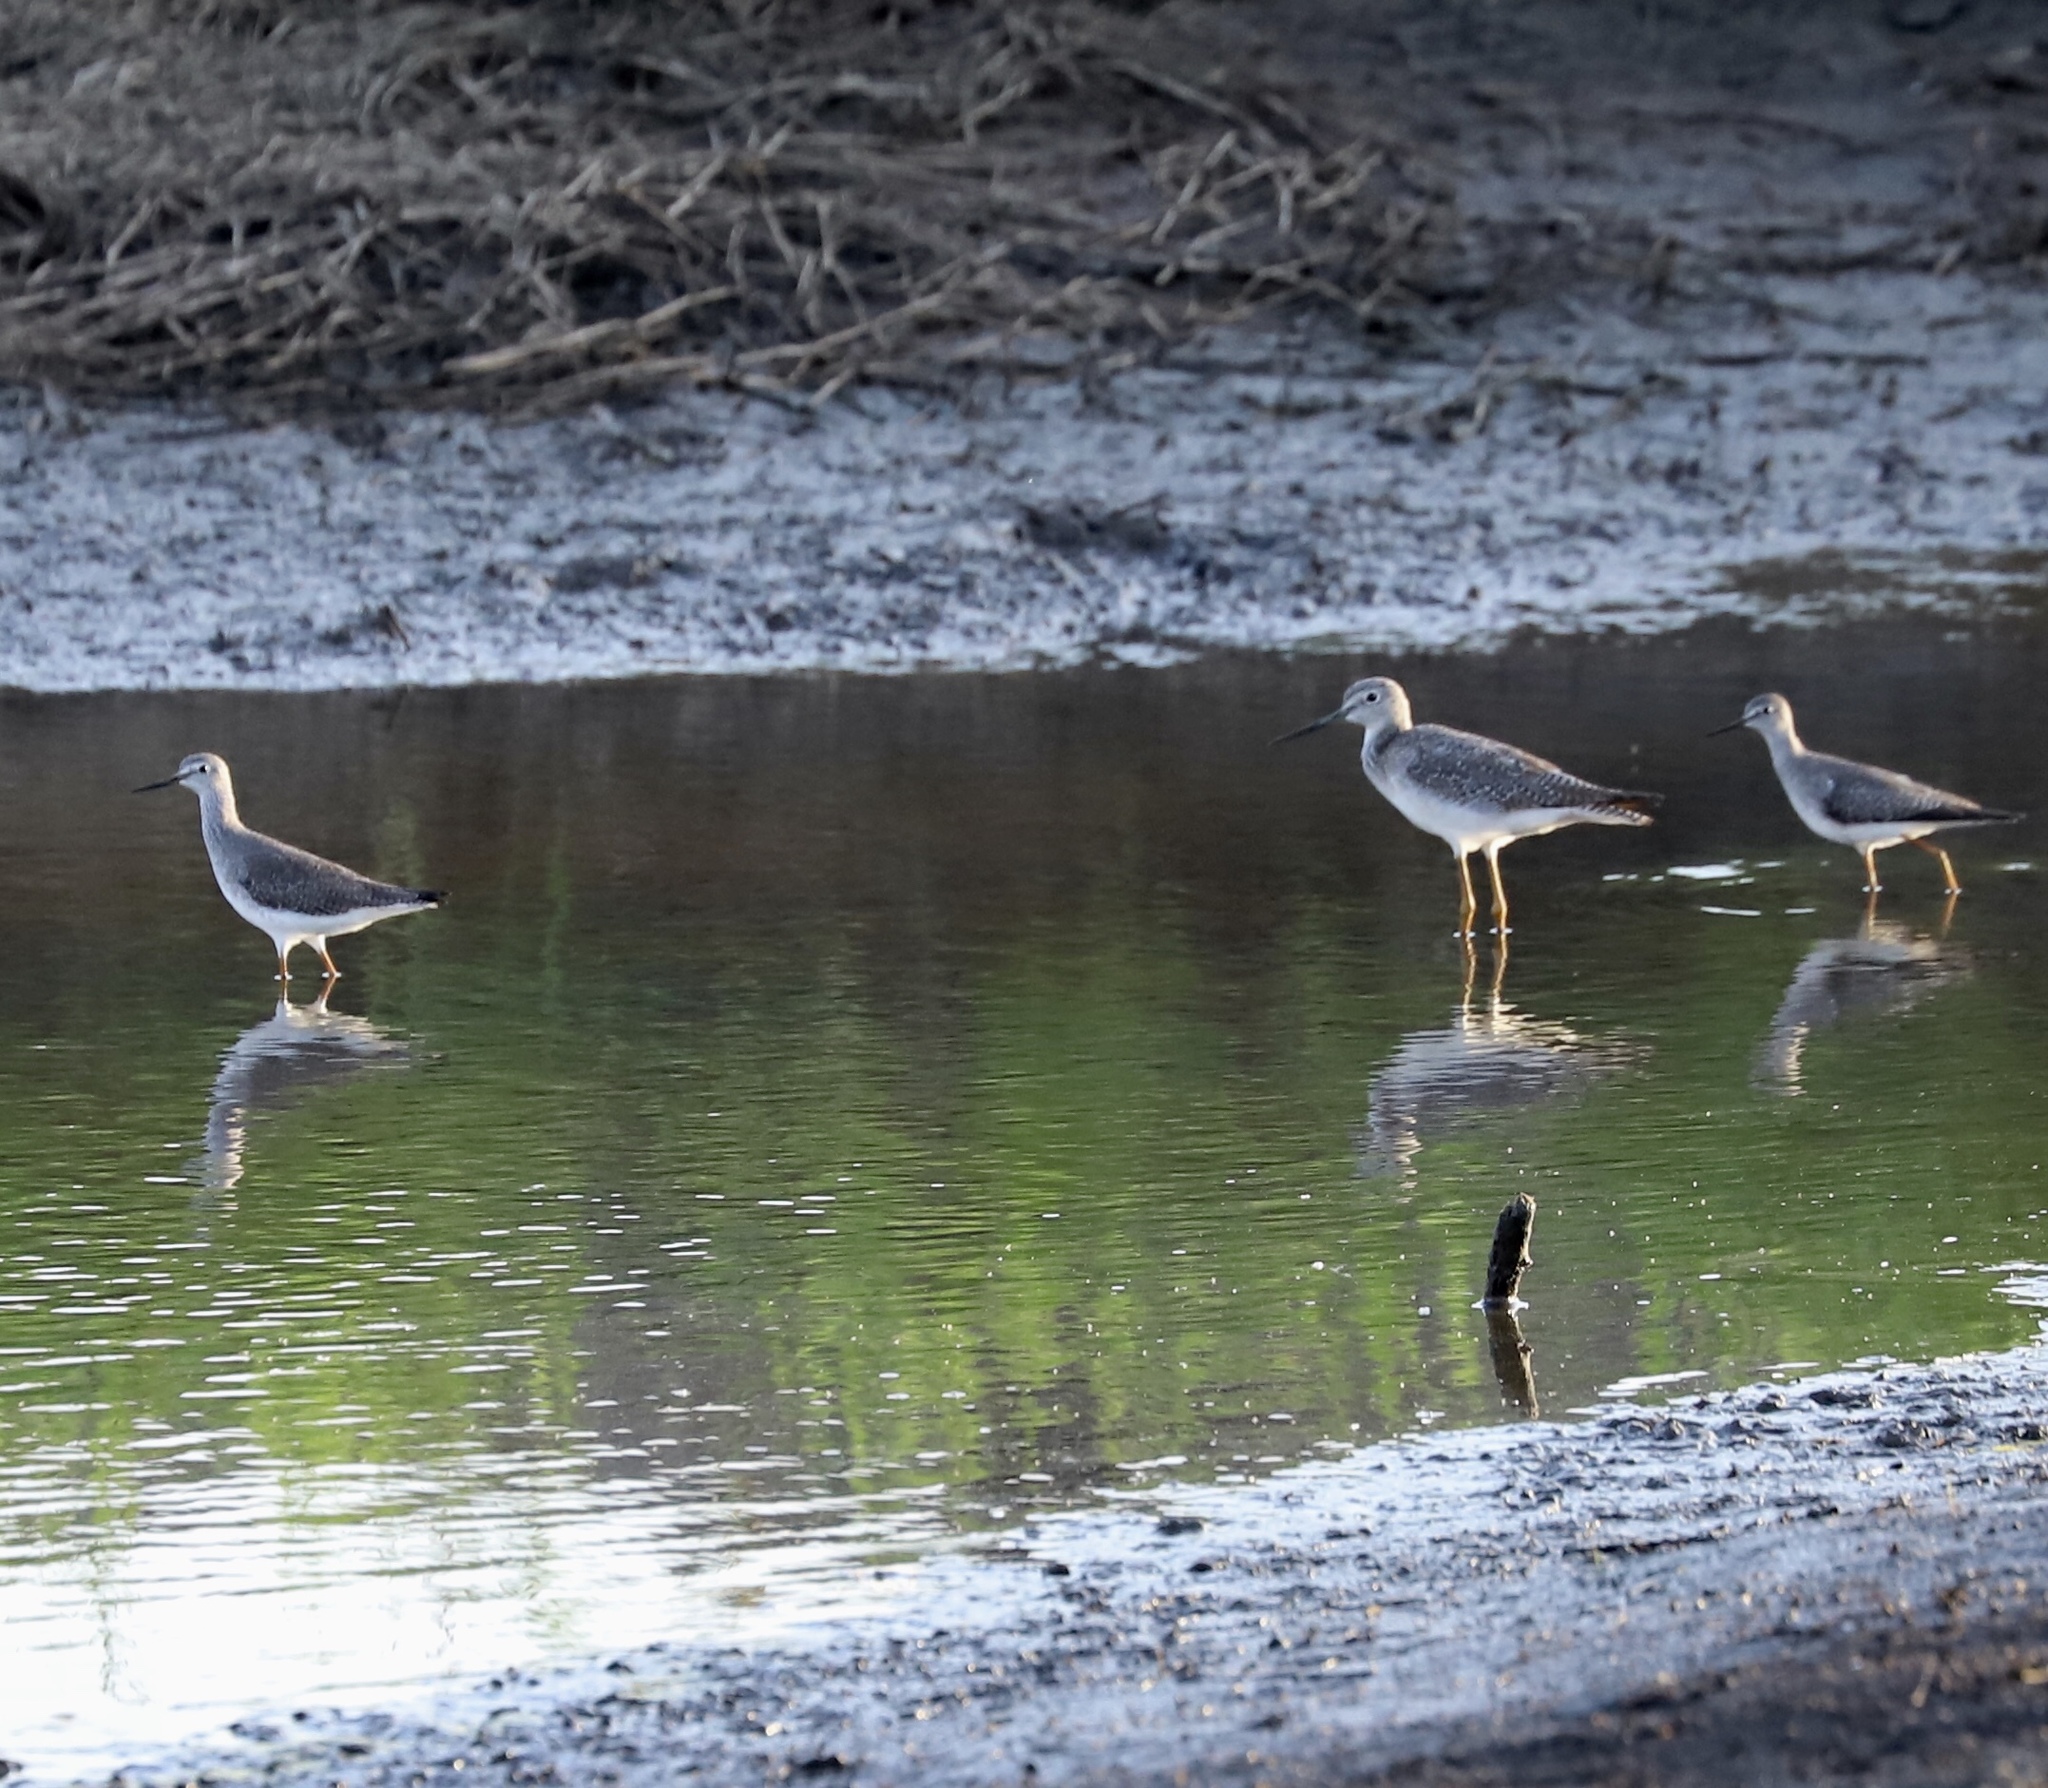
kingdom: Animalia
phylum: Chordata
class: Aves
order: Charadriiformes
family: Scolopacidae
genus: Tringa
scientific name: Tringa melanoleuca
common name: Greater yellowlegs
